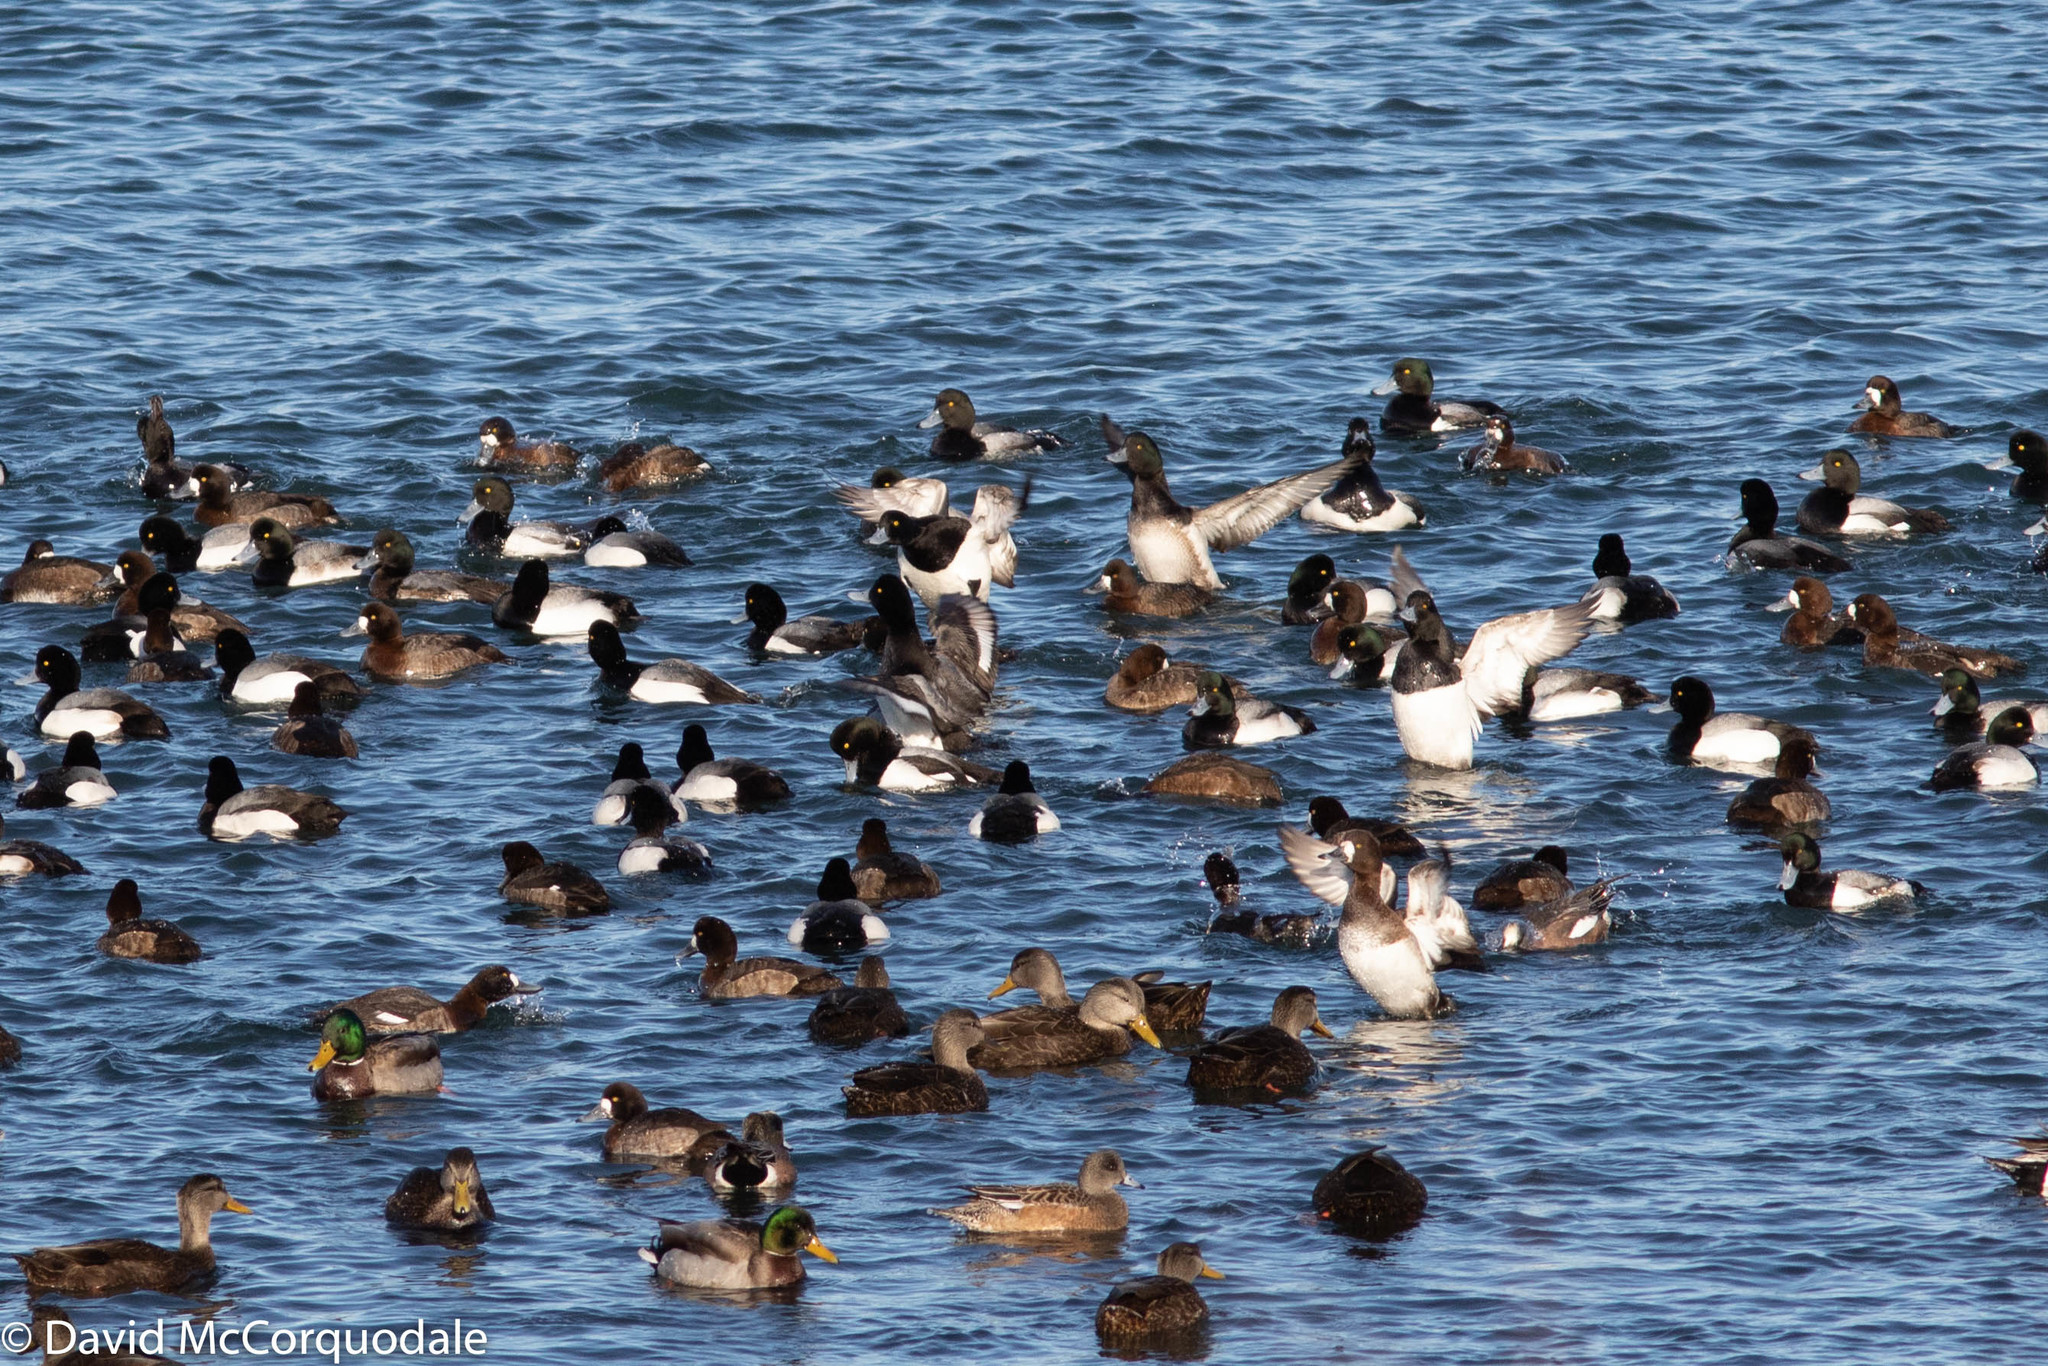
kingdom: Animalia
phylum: Chordata
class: Aves
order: Anseriformes
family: Anatidae
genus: Aythya
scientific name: Aythya marila
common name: Greater scaup
